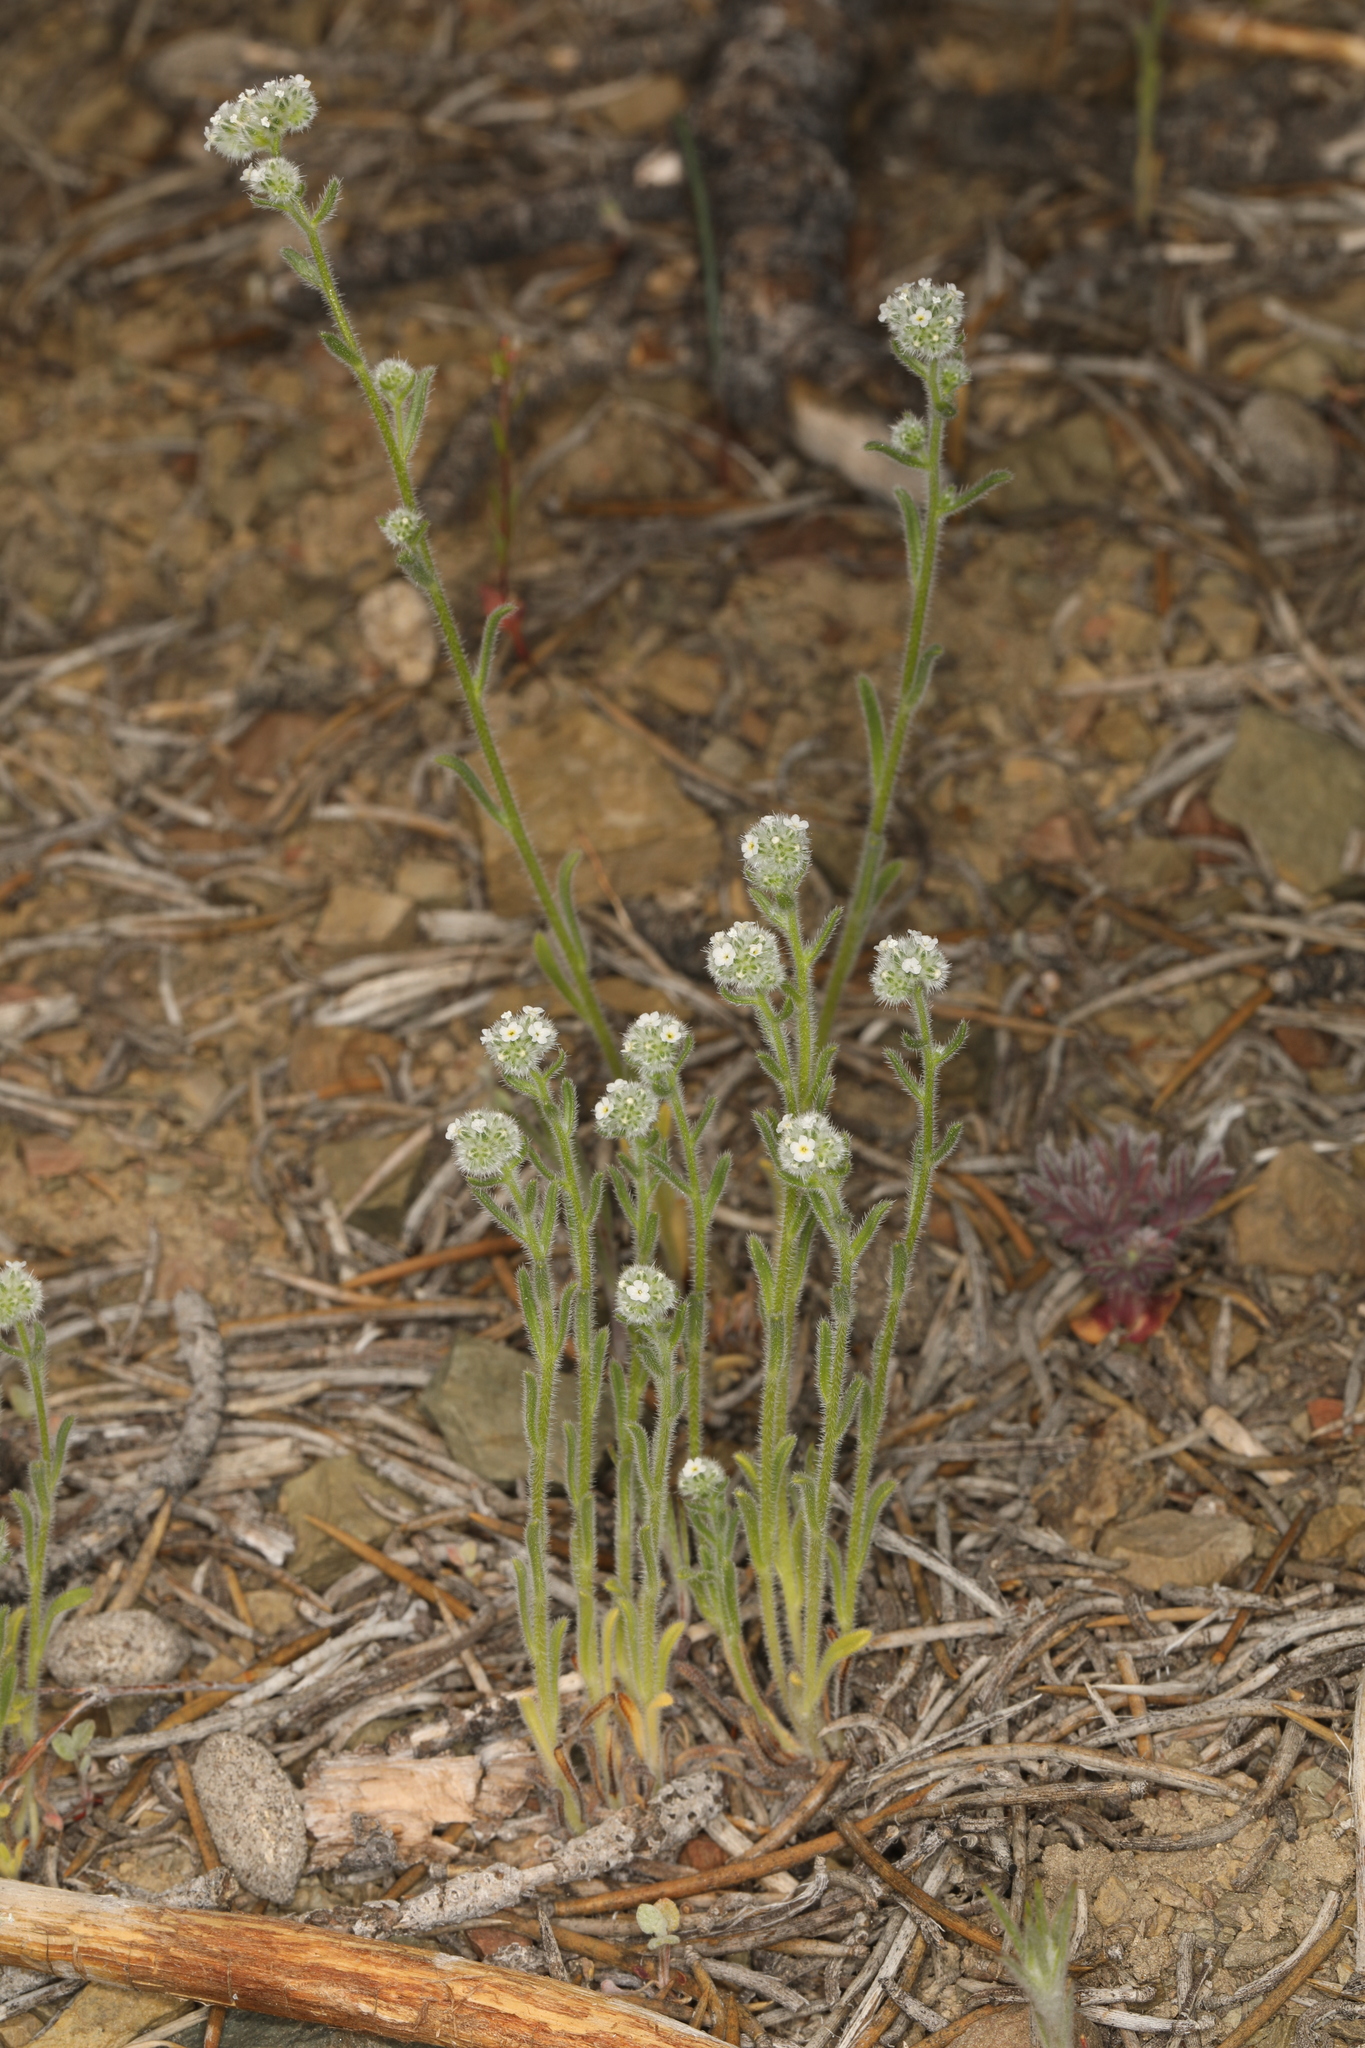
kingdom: Plantae
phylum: Tracheophyta
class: Magnoliopsida
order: Boraginales
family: Boraginaceae
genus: Cryptantha
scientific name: Cryptantha gracilis
